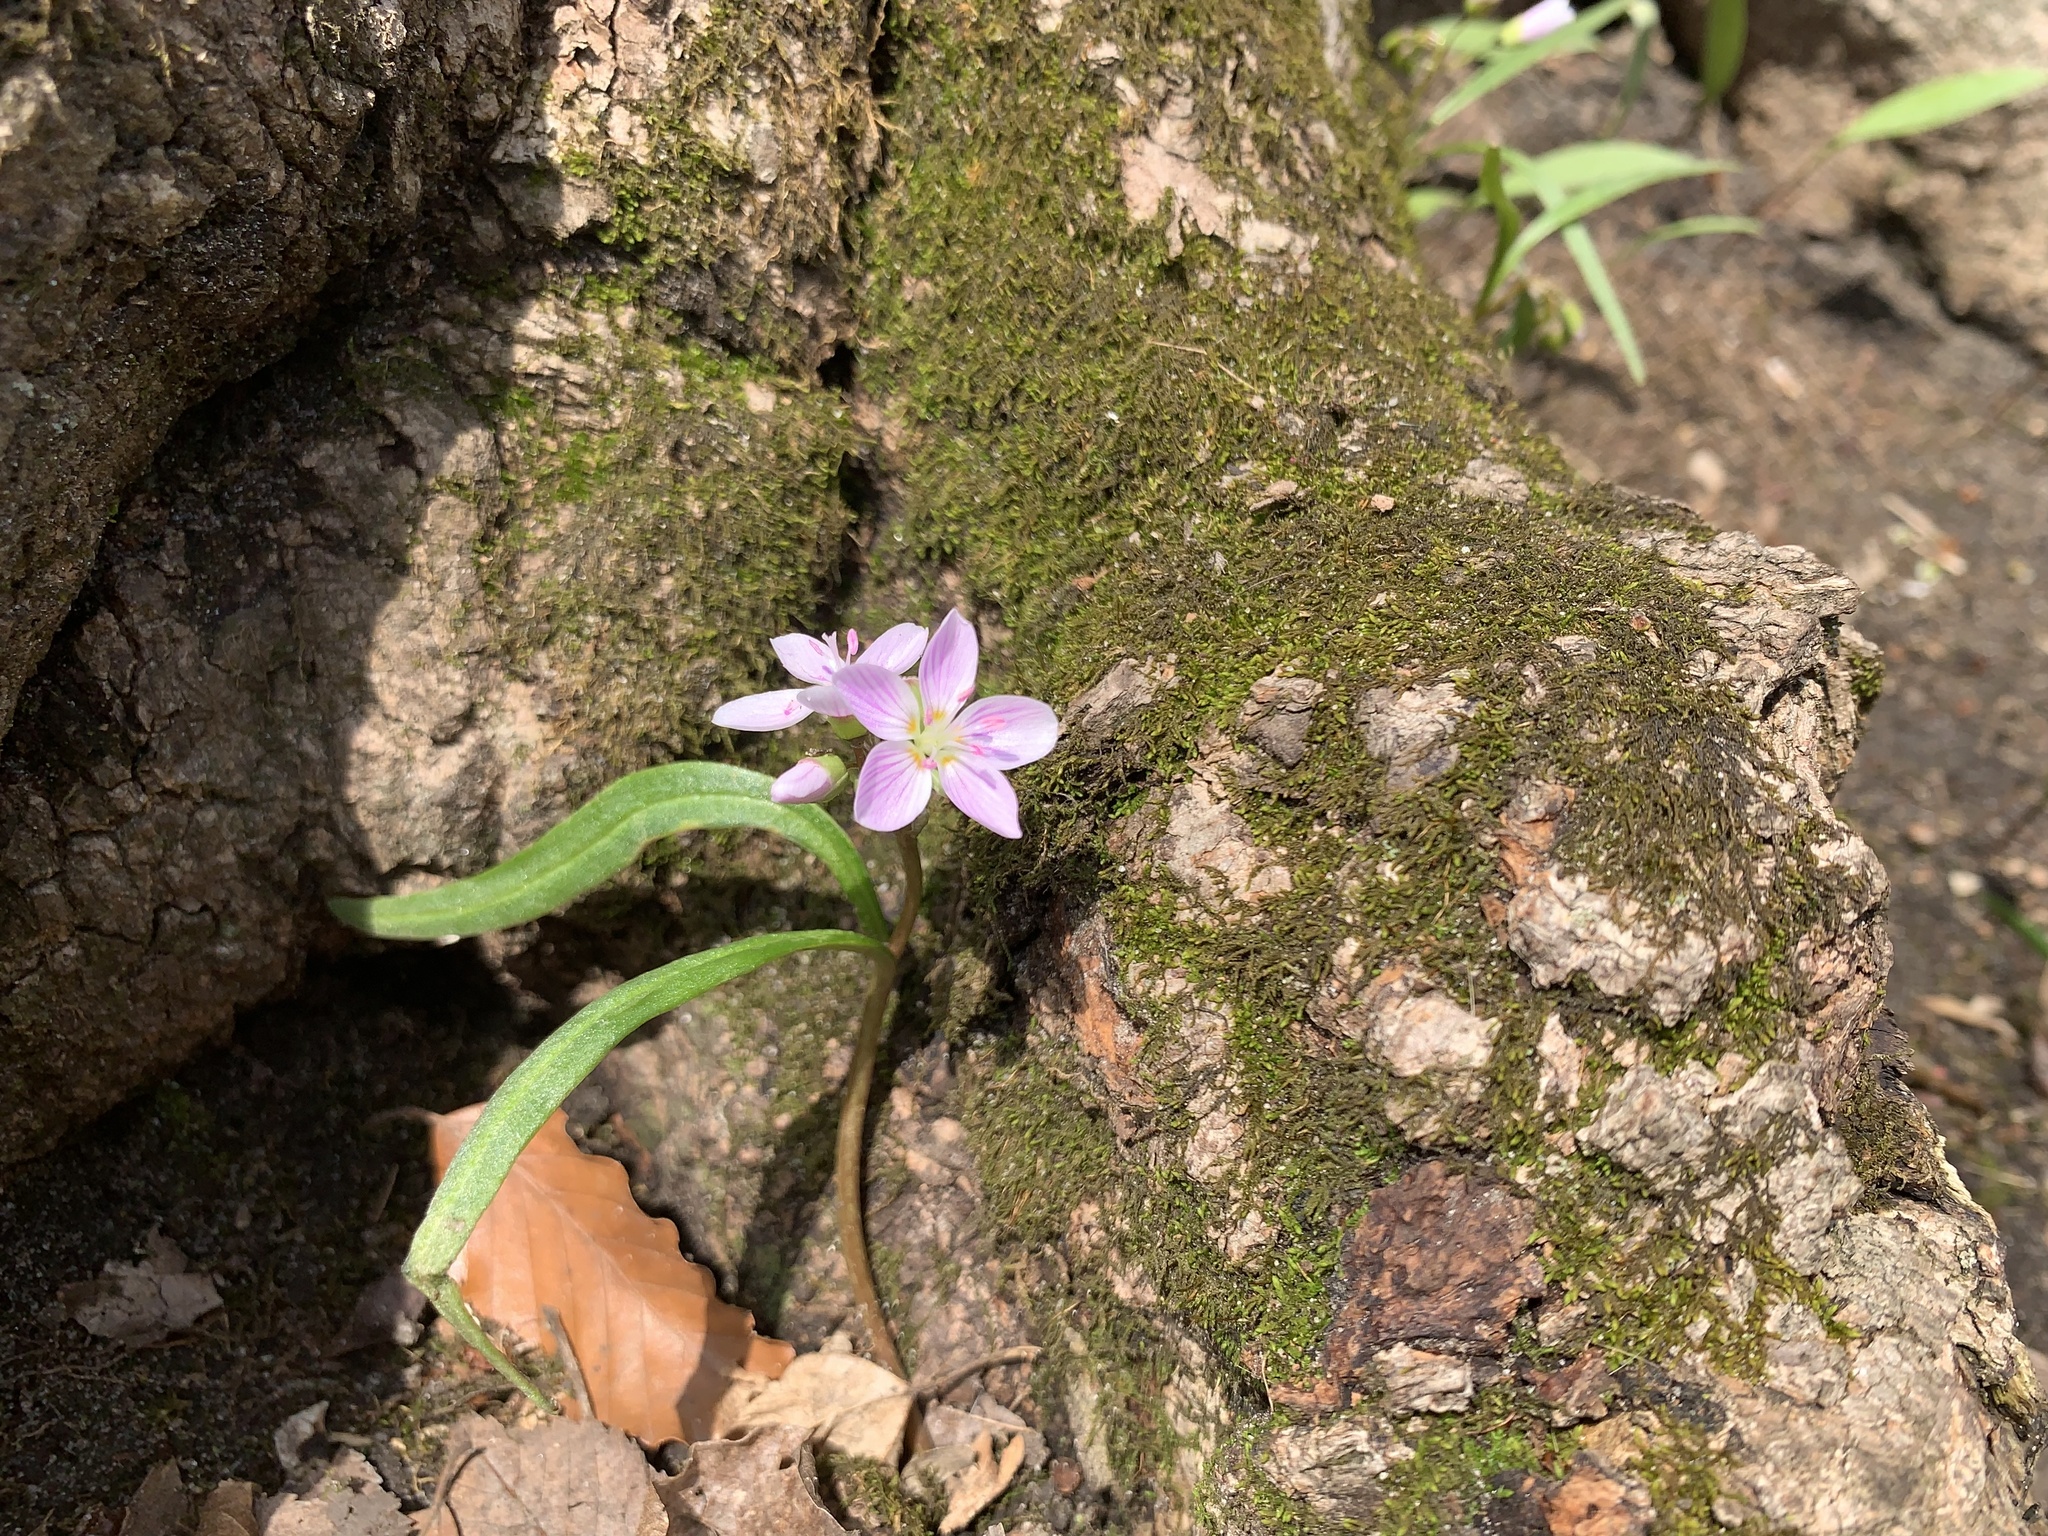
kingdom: Plantae
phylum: Tracheophyta
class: Magnoliopsida
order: Caryophyllales
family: Montiaceae
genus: Claytonia
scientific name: Claytonia virginica
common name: Virginia springbeauty
